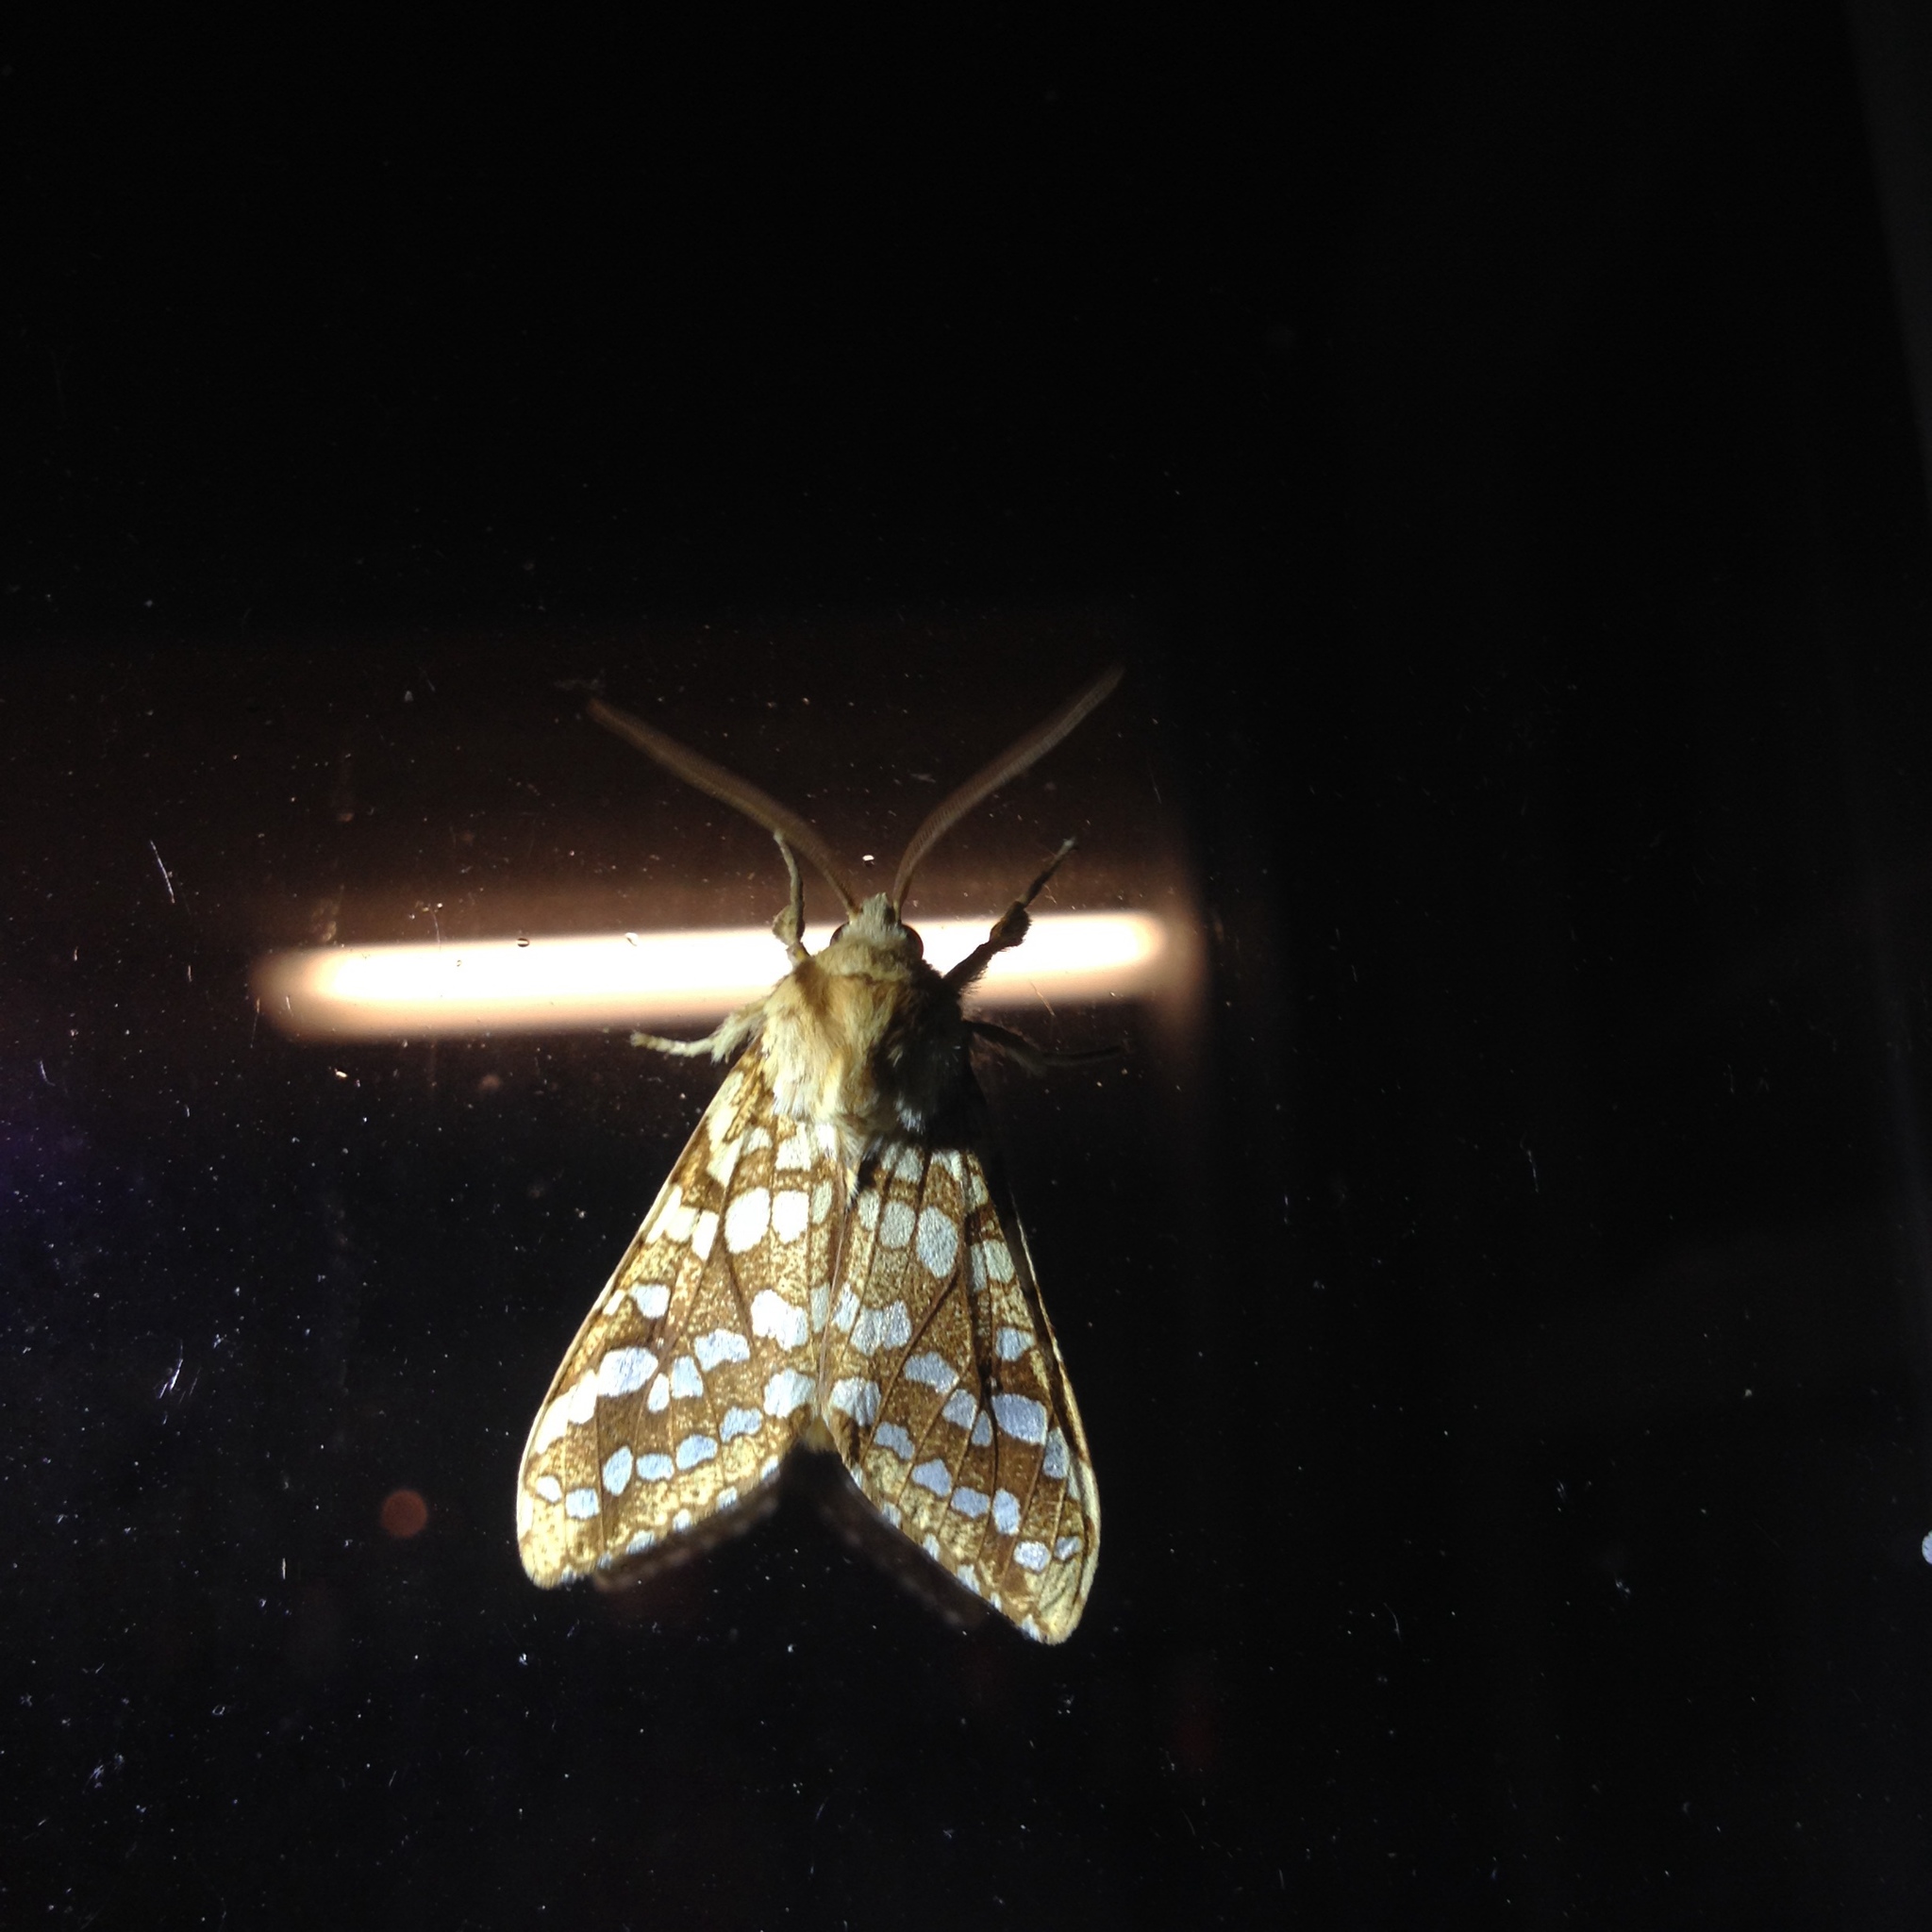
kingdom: Animalia
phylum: Arthropoda
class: Insecta
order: Lepidoptera
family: Erebidae
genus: Lophocampa
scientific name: Lophocampa caryae
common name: Hickory tussock moth
